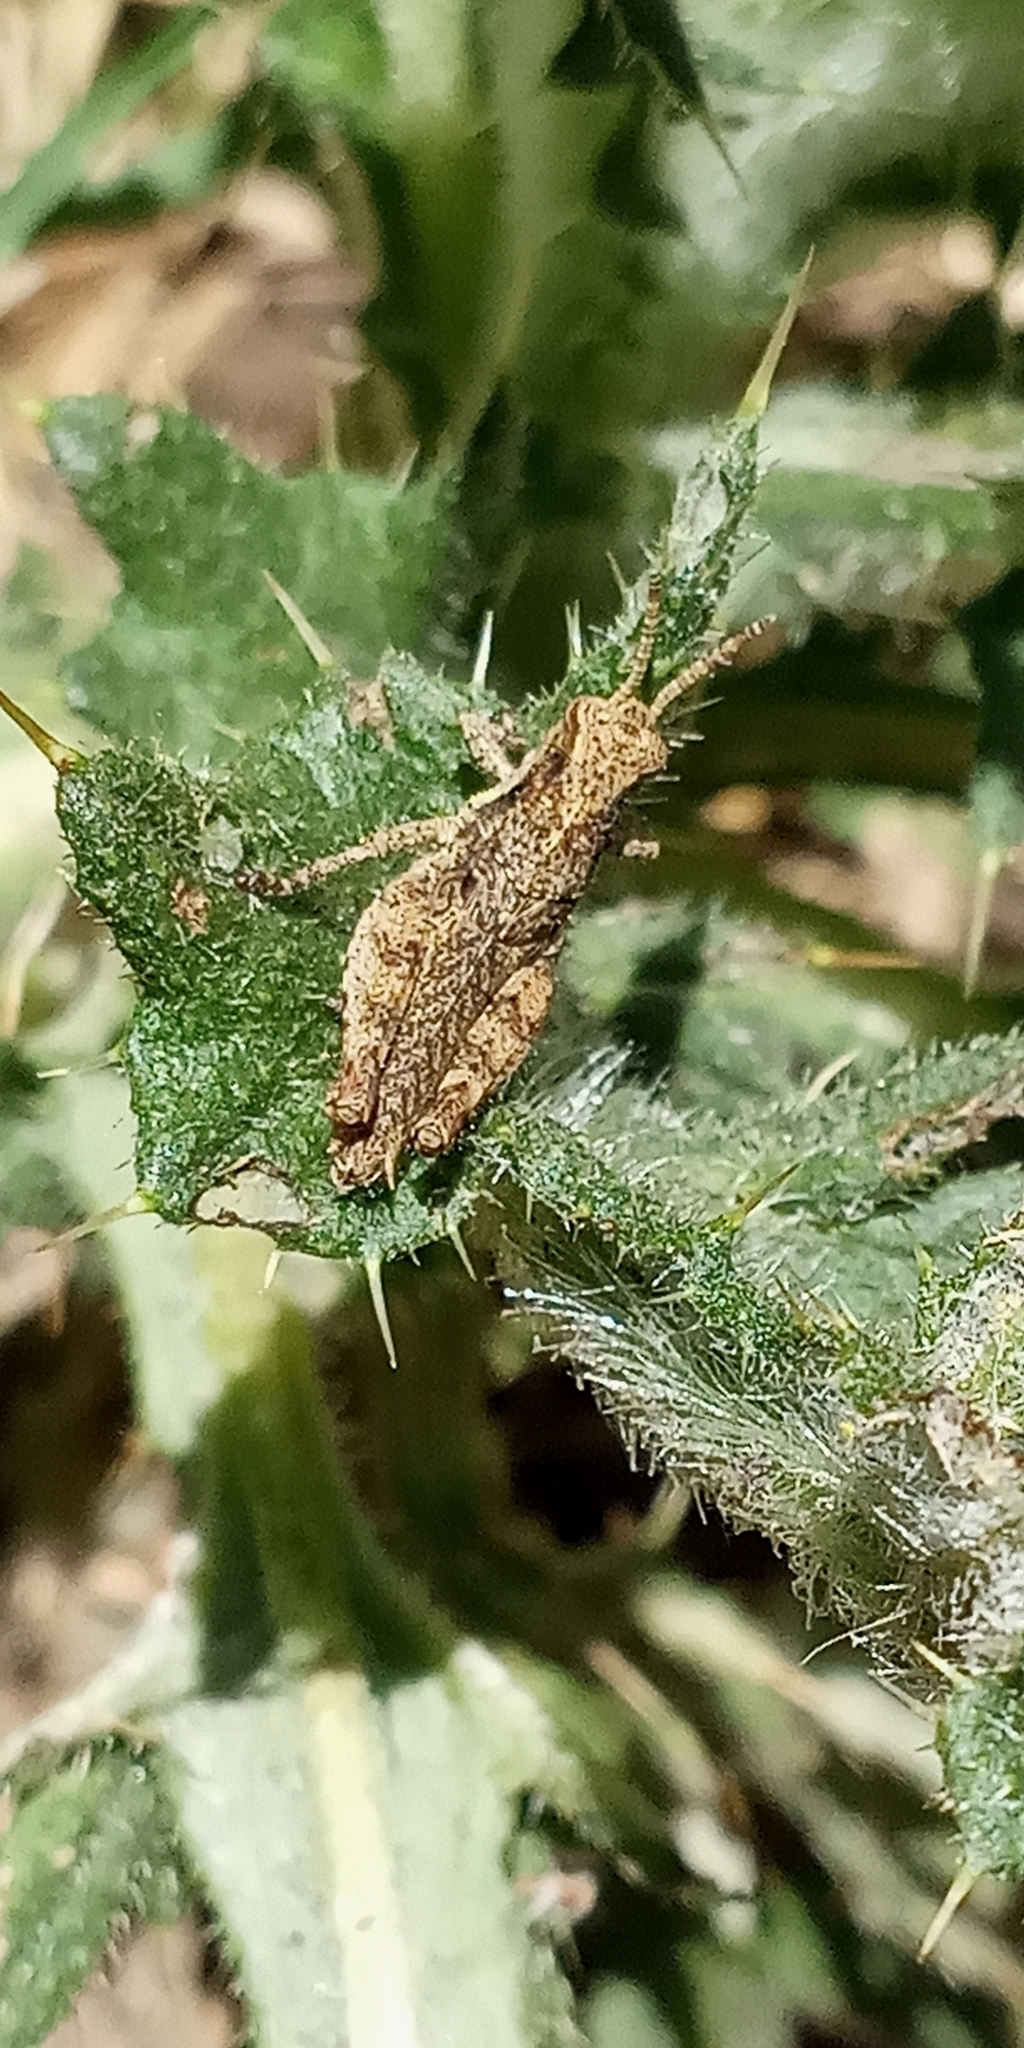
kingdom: Animalia
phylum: Arthropoda
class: Insecta
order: Orthoptera
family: Acrididae
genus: Ronderosia
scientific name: Ronderosia bergii
